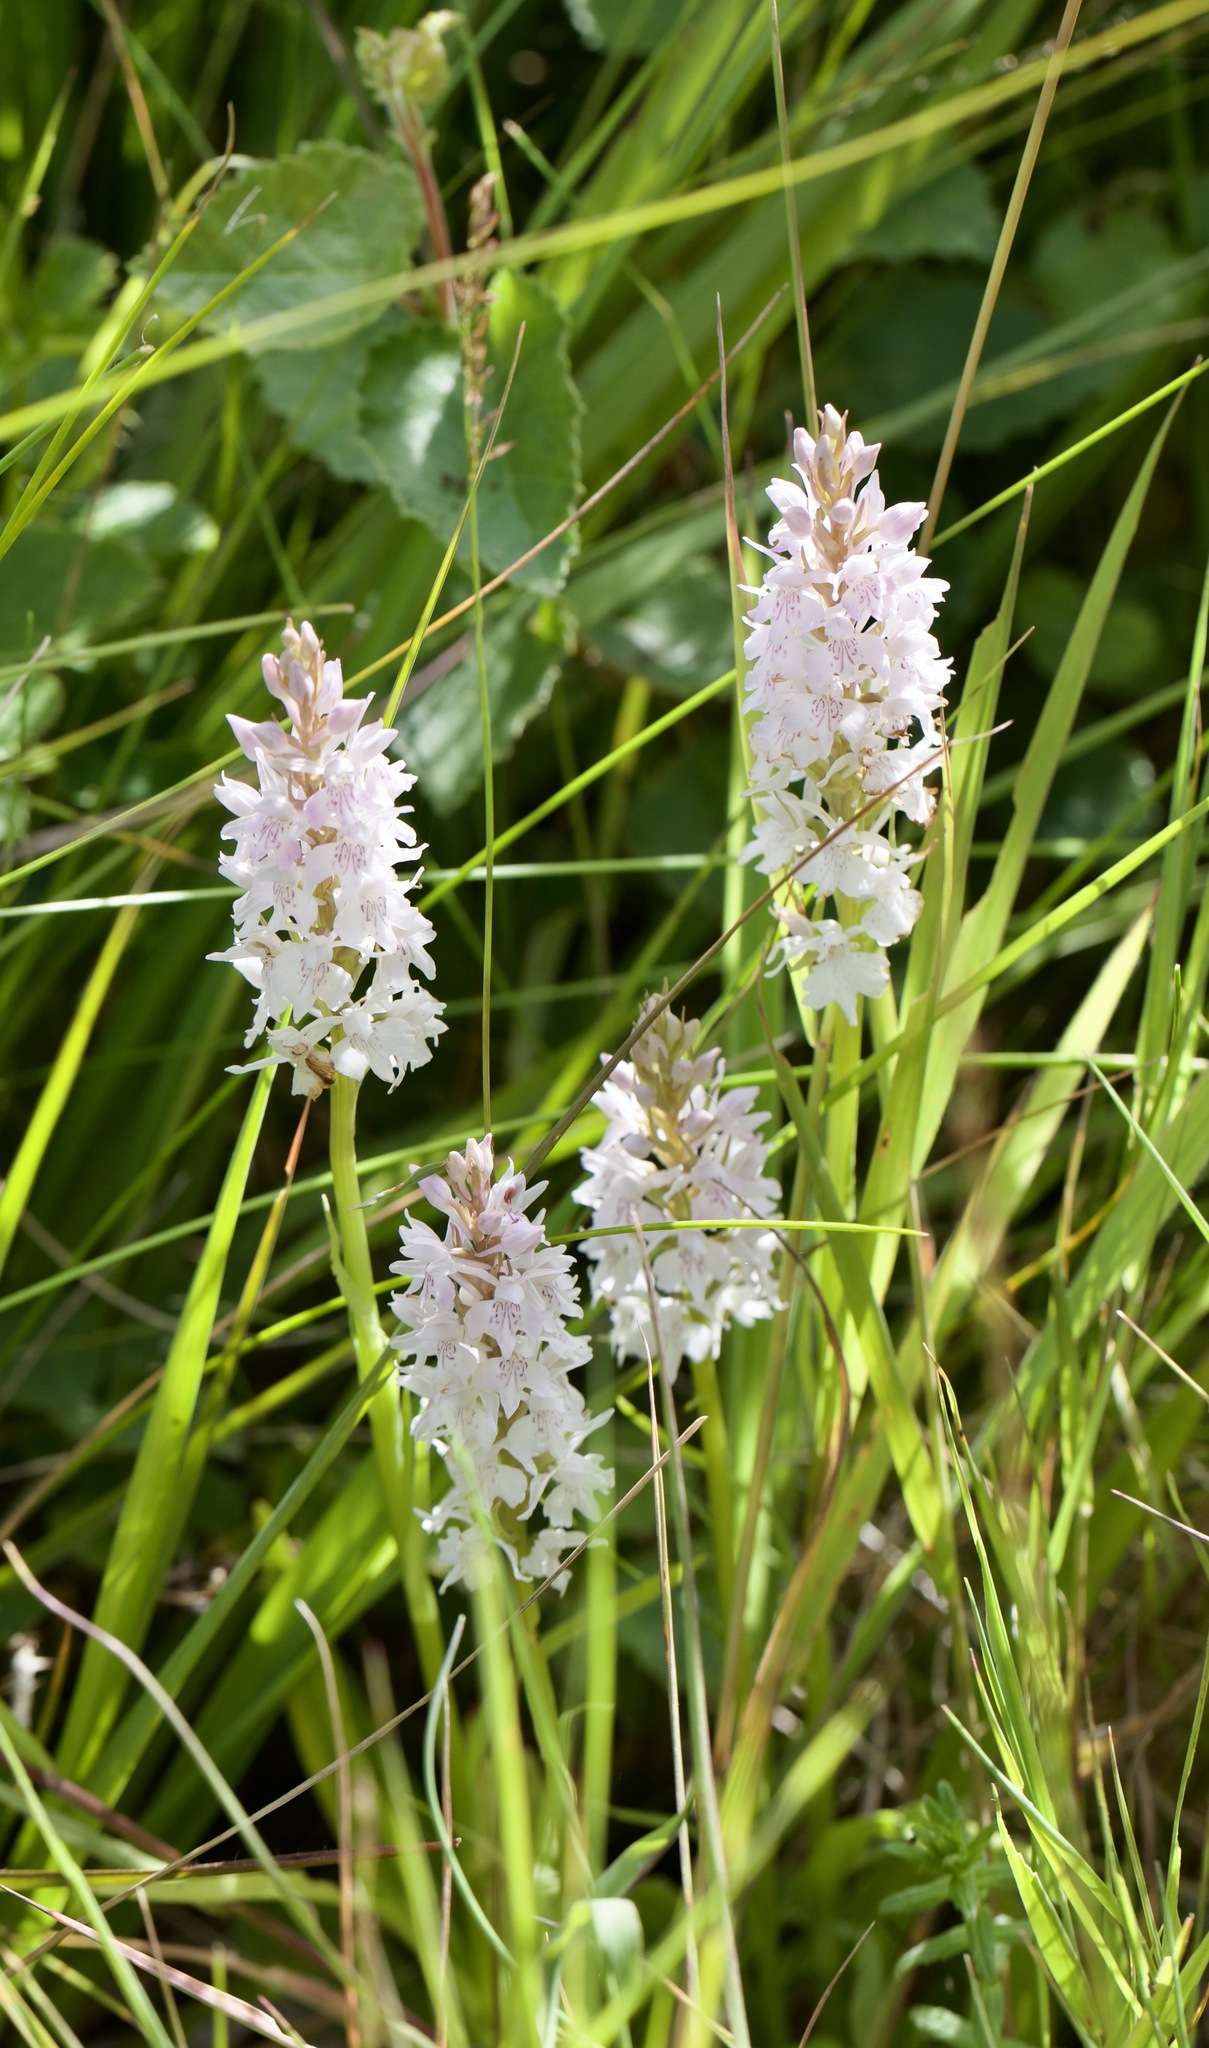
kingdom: Plantae
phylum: Tracheophyta
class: Liliopsida
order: Asparagales
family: Orchidaceae
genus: Dactylorhiza
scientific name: Dactylorhiza maculata
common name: Heath spotted-orchid
